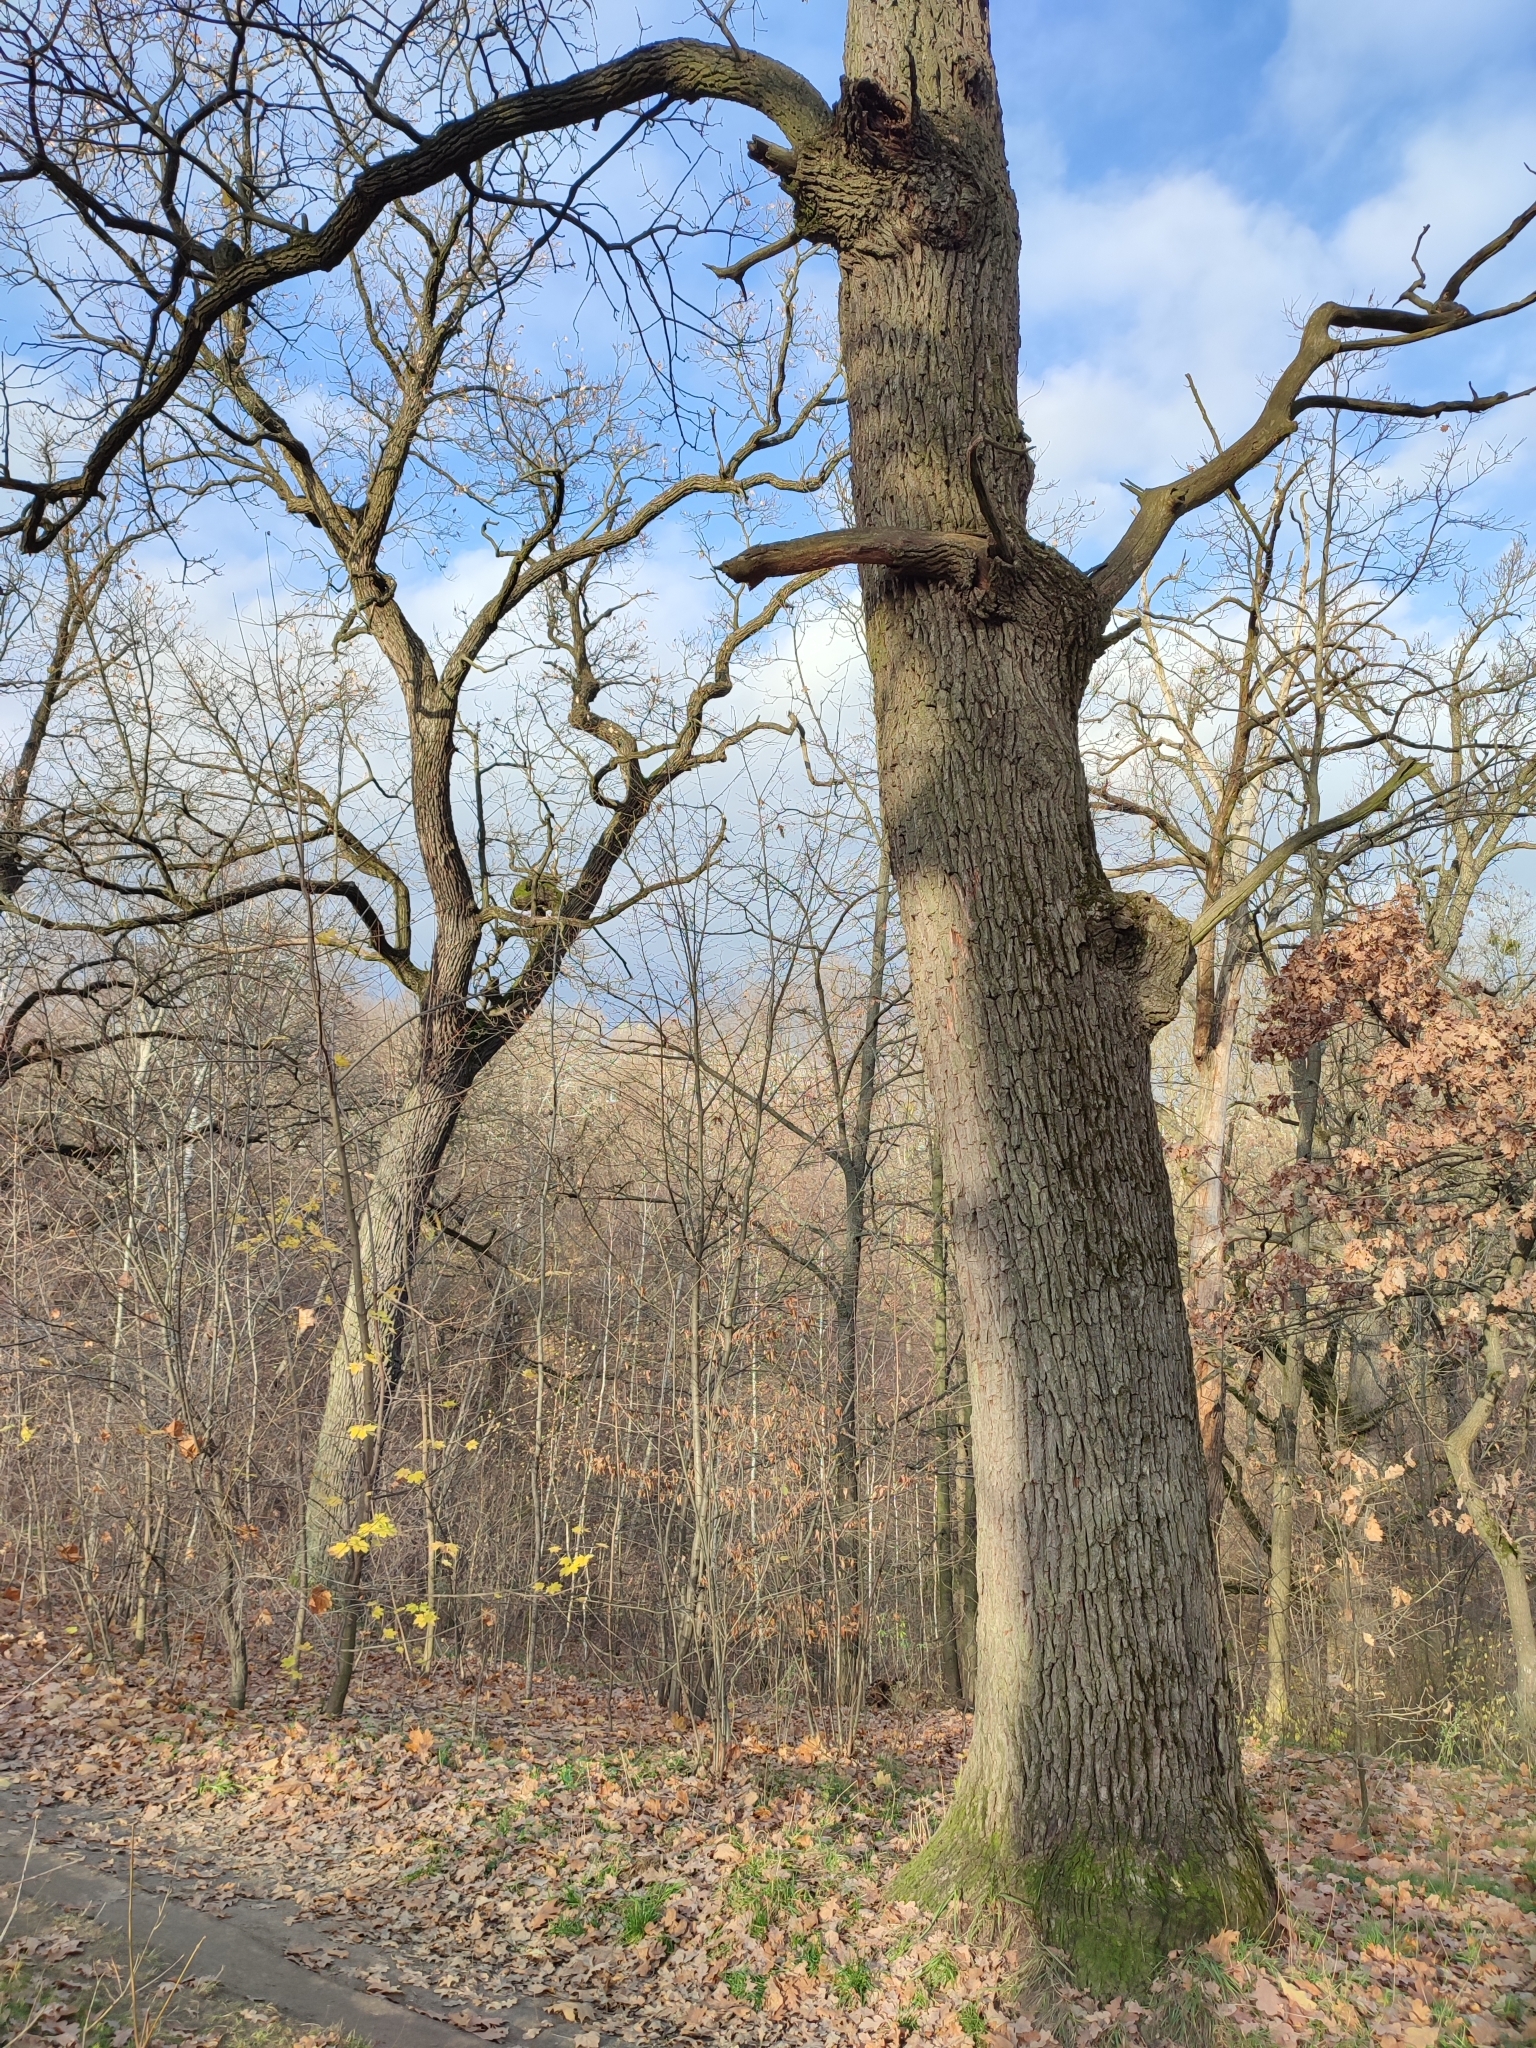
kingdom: Plantae
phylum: Tracheophyta
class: Magnoliopsida
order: Fagales
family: Fagaceae
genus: Quercus
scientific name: Quercus robur
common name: Pedunculate oak
